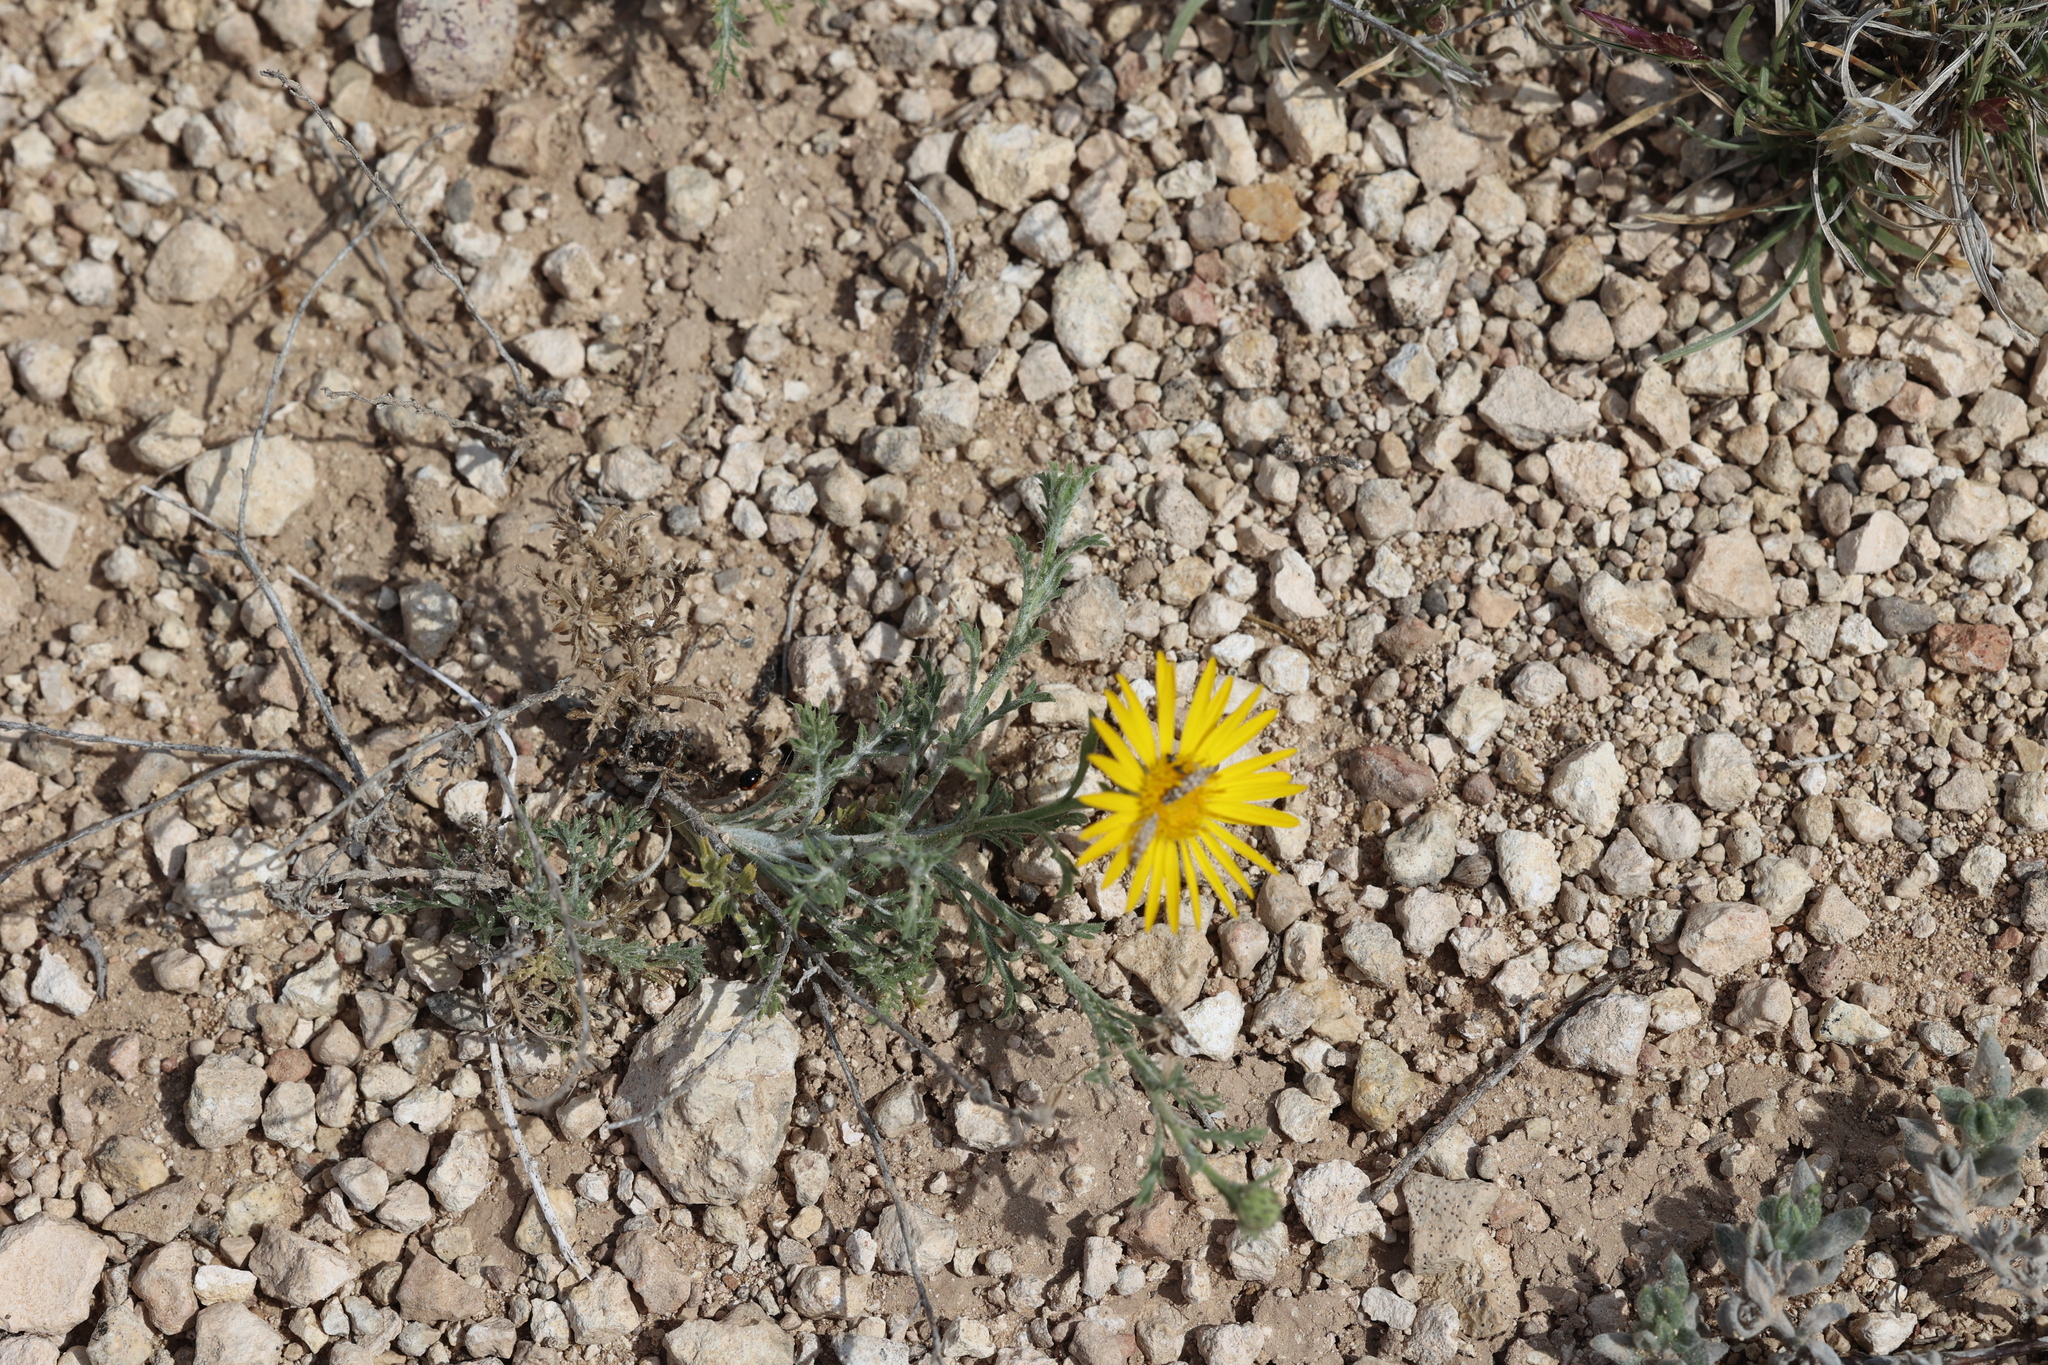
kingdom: Plantae
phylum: Tracheophyta
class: Magnoliopsida
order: Asterales
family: Asteraceae
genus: Xanthisma
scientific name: Xanthisma spinulosum
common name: Spiny goldenweed
